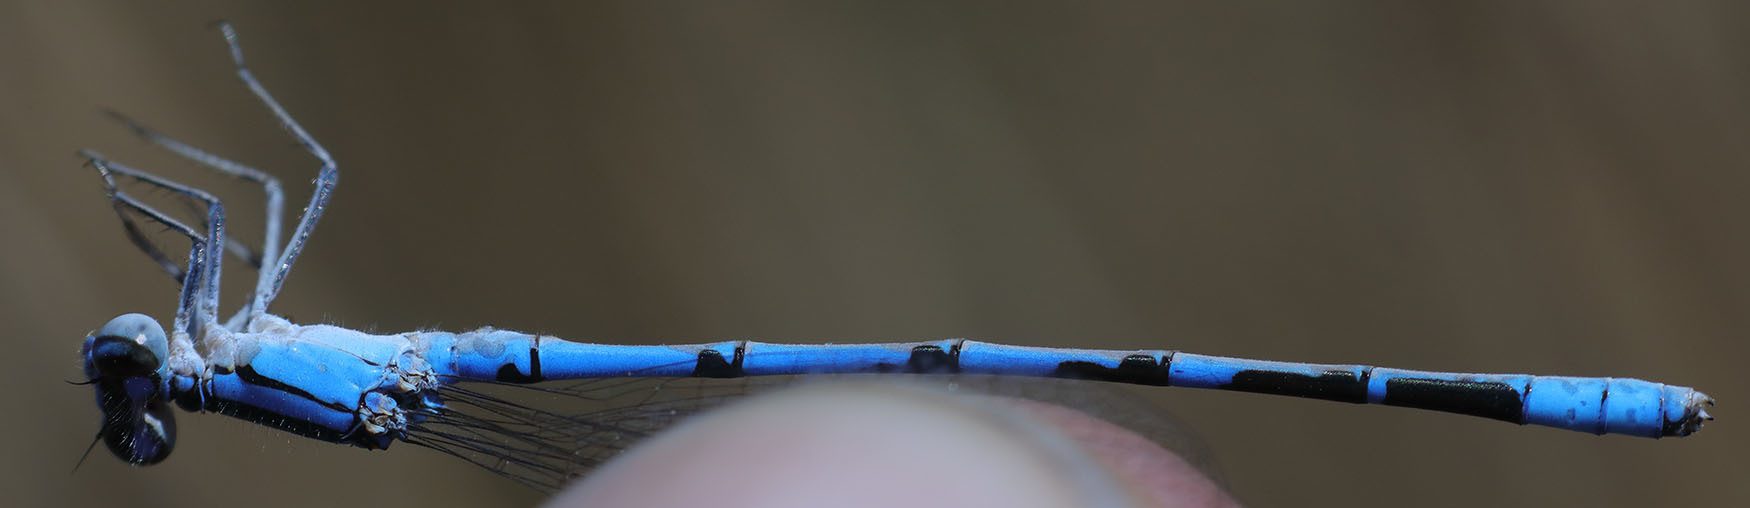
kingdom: Animalia
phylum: Arthropoda
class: Insecta
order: Odonata
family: Coenagrionidae
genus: Enallagma
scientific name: Enallagma annexum
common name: Northern bluet
